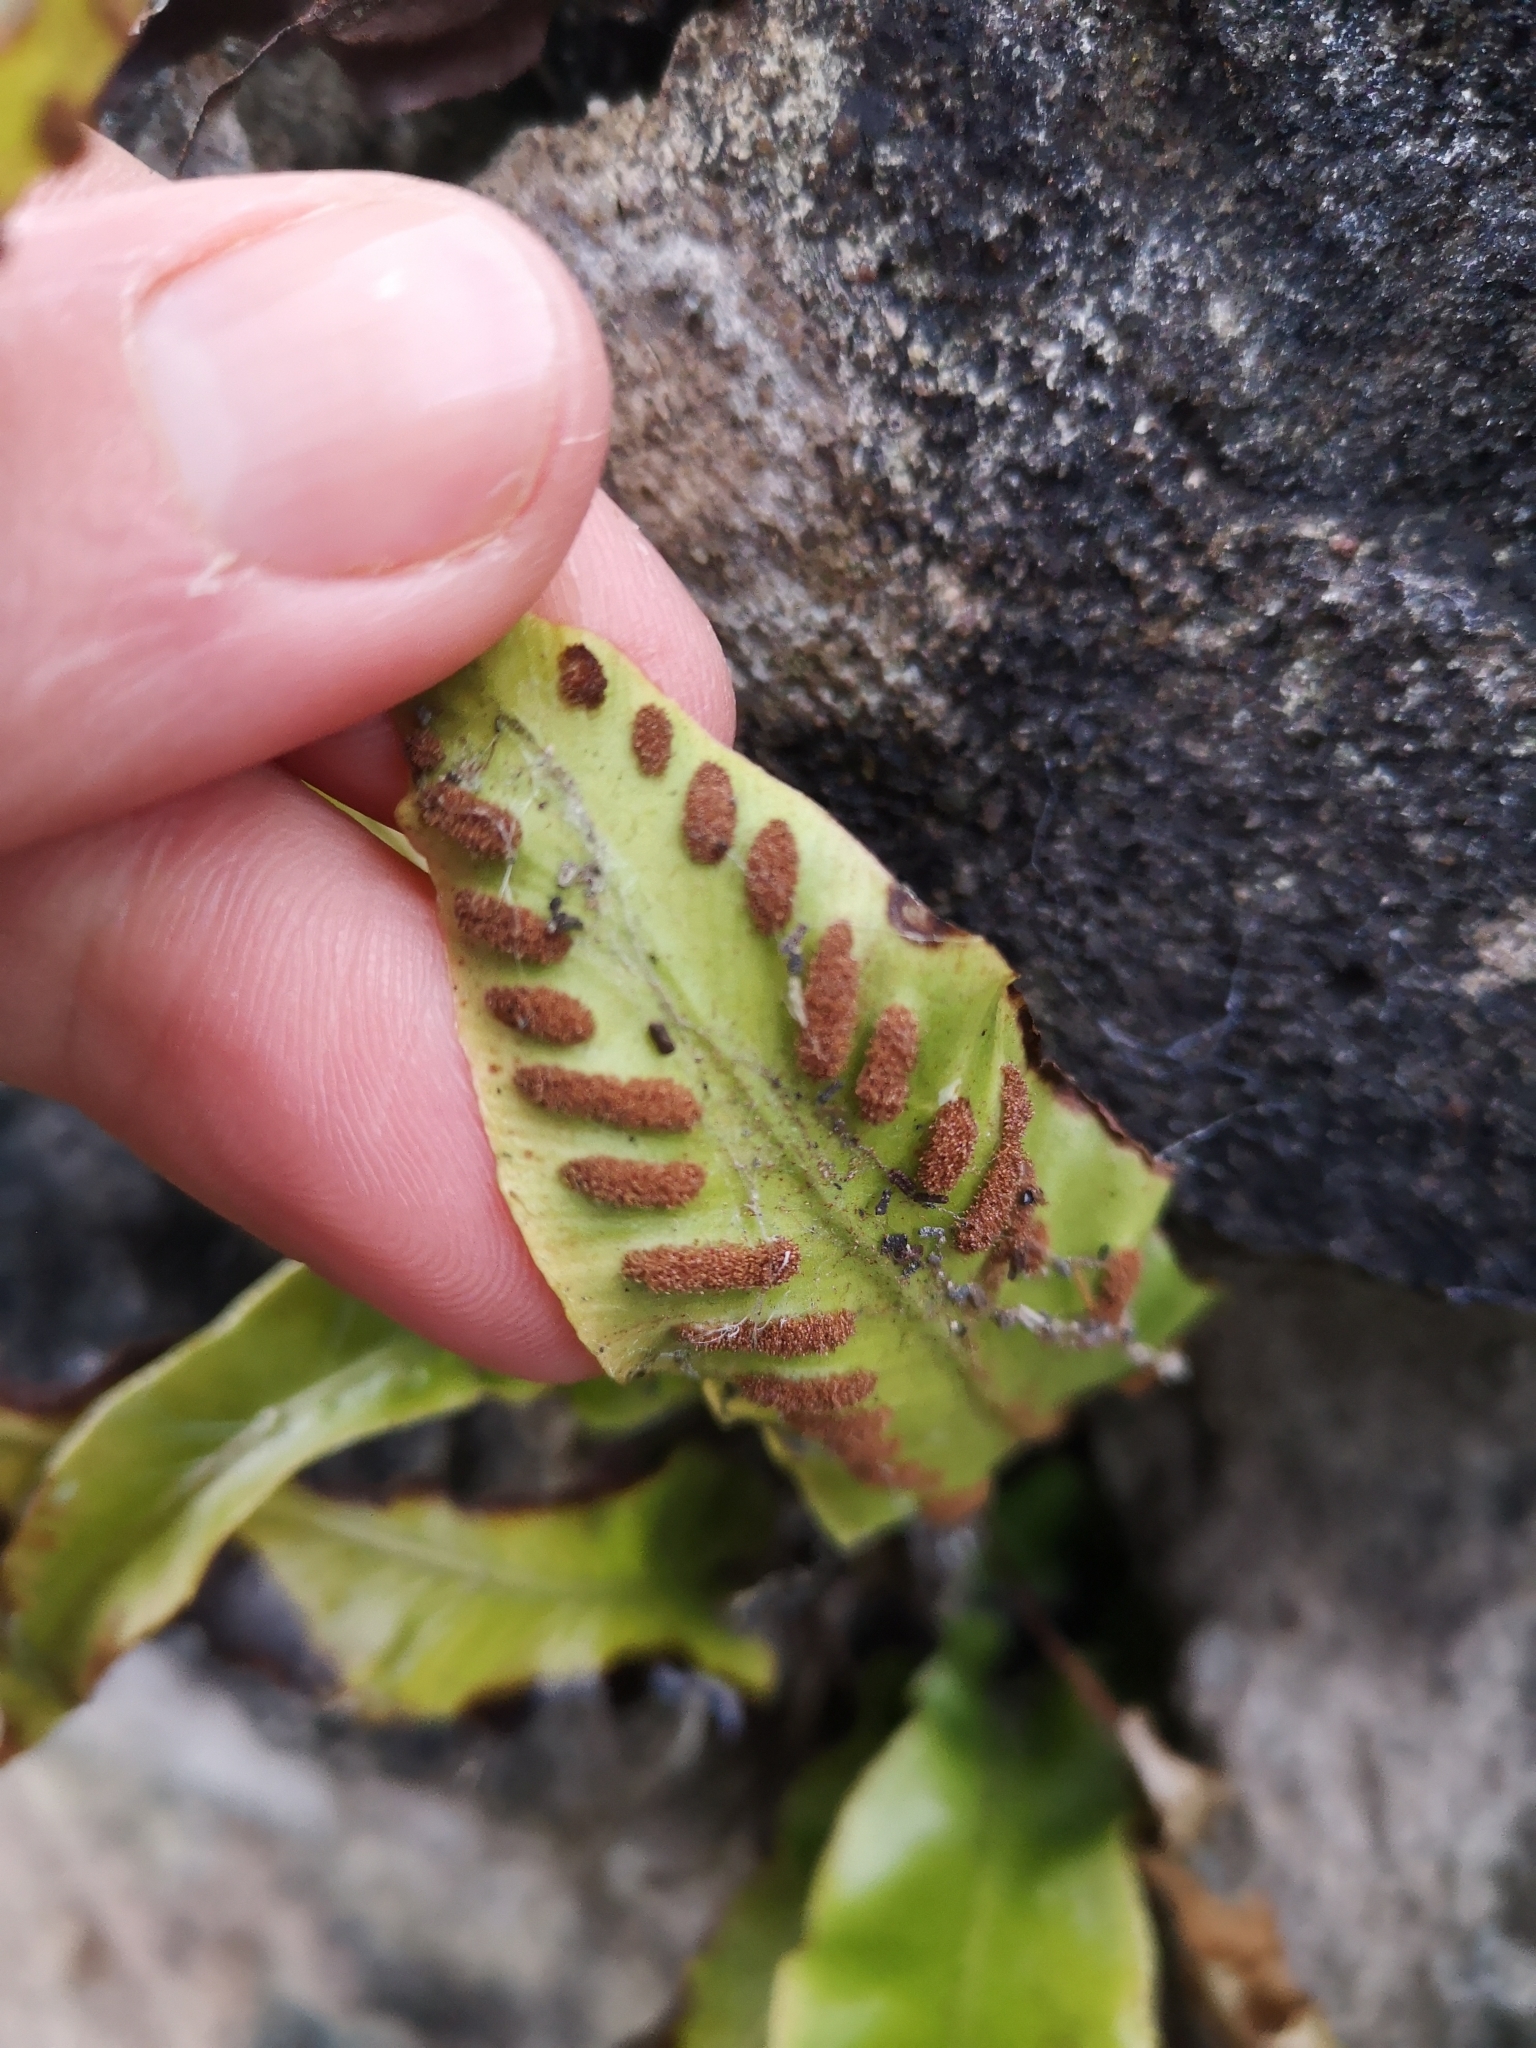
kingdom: Plantae
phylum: Tracheophyta
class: Polypodiopsida
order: Polypodiales
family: Aspleniaceae
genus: Asplenium
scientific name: Asplenium scolopendrium
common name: Hart's-tongue fern
